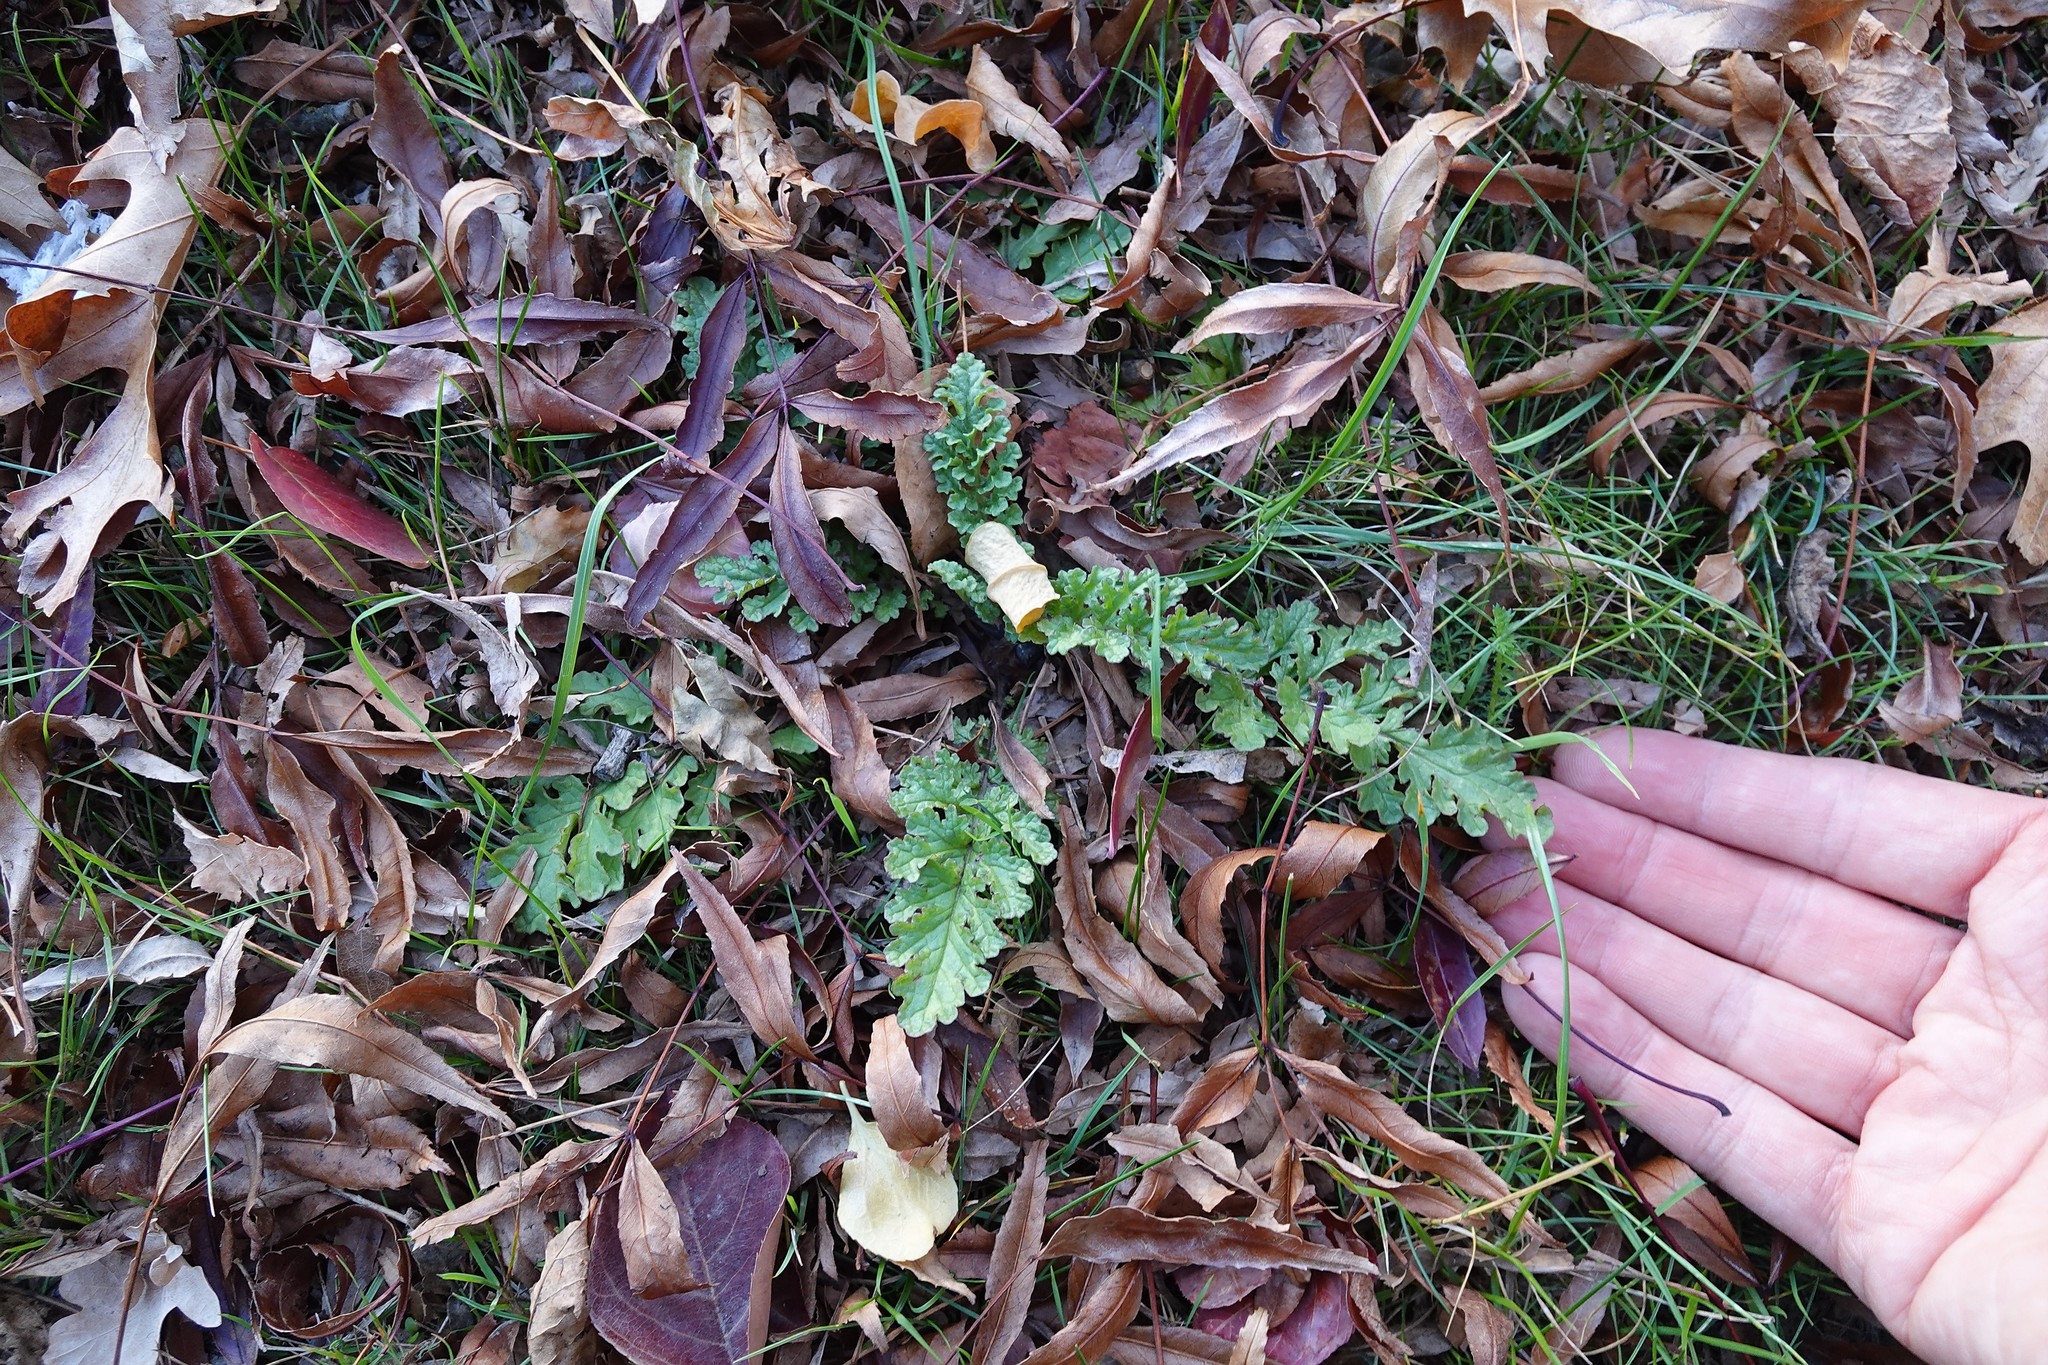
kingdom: Plantae
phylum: Tracheophyta
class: Magnoliopsida
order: Asterales
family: Asteraceae
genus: Jacobaea
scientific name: Jacobaea vulgaris
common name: Stinking willie
